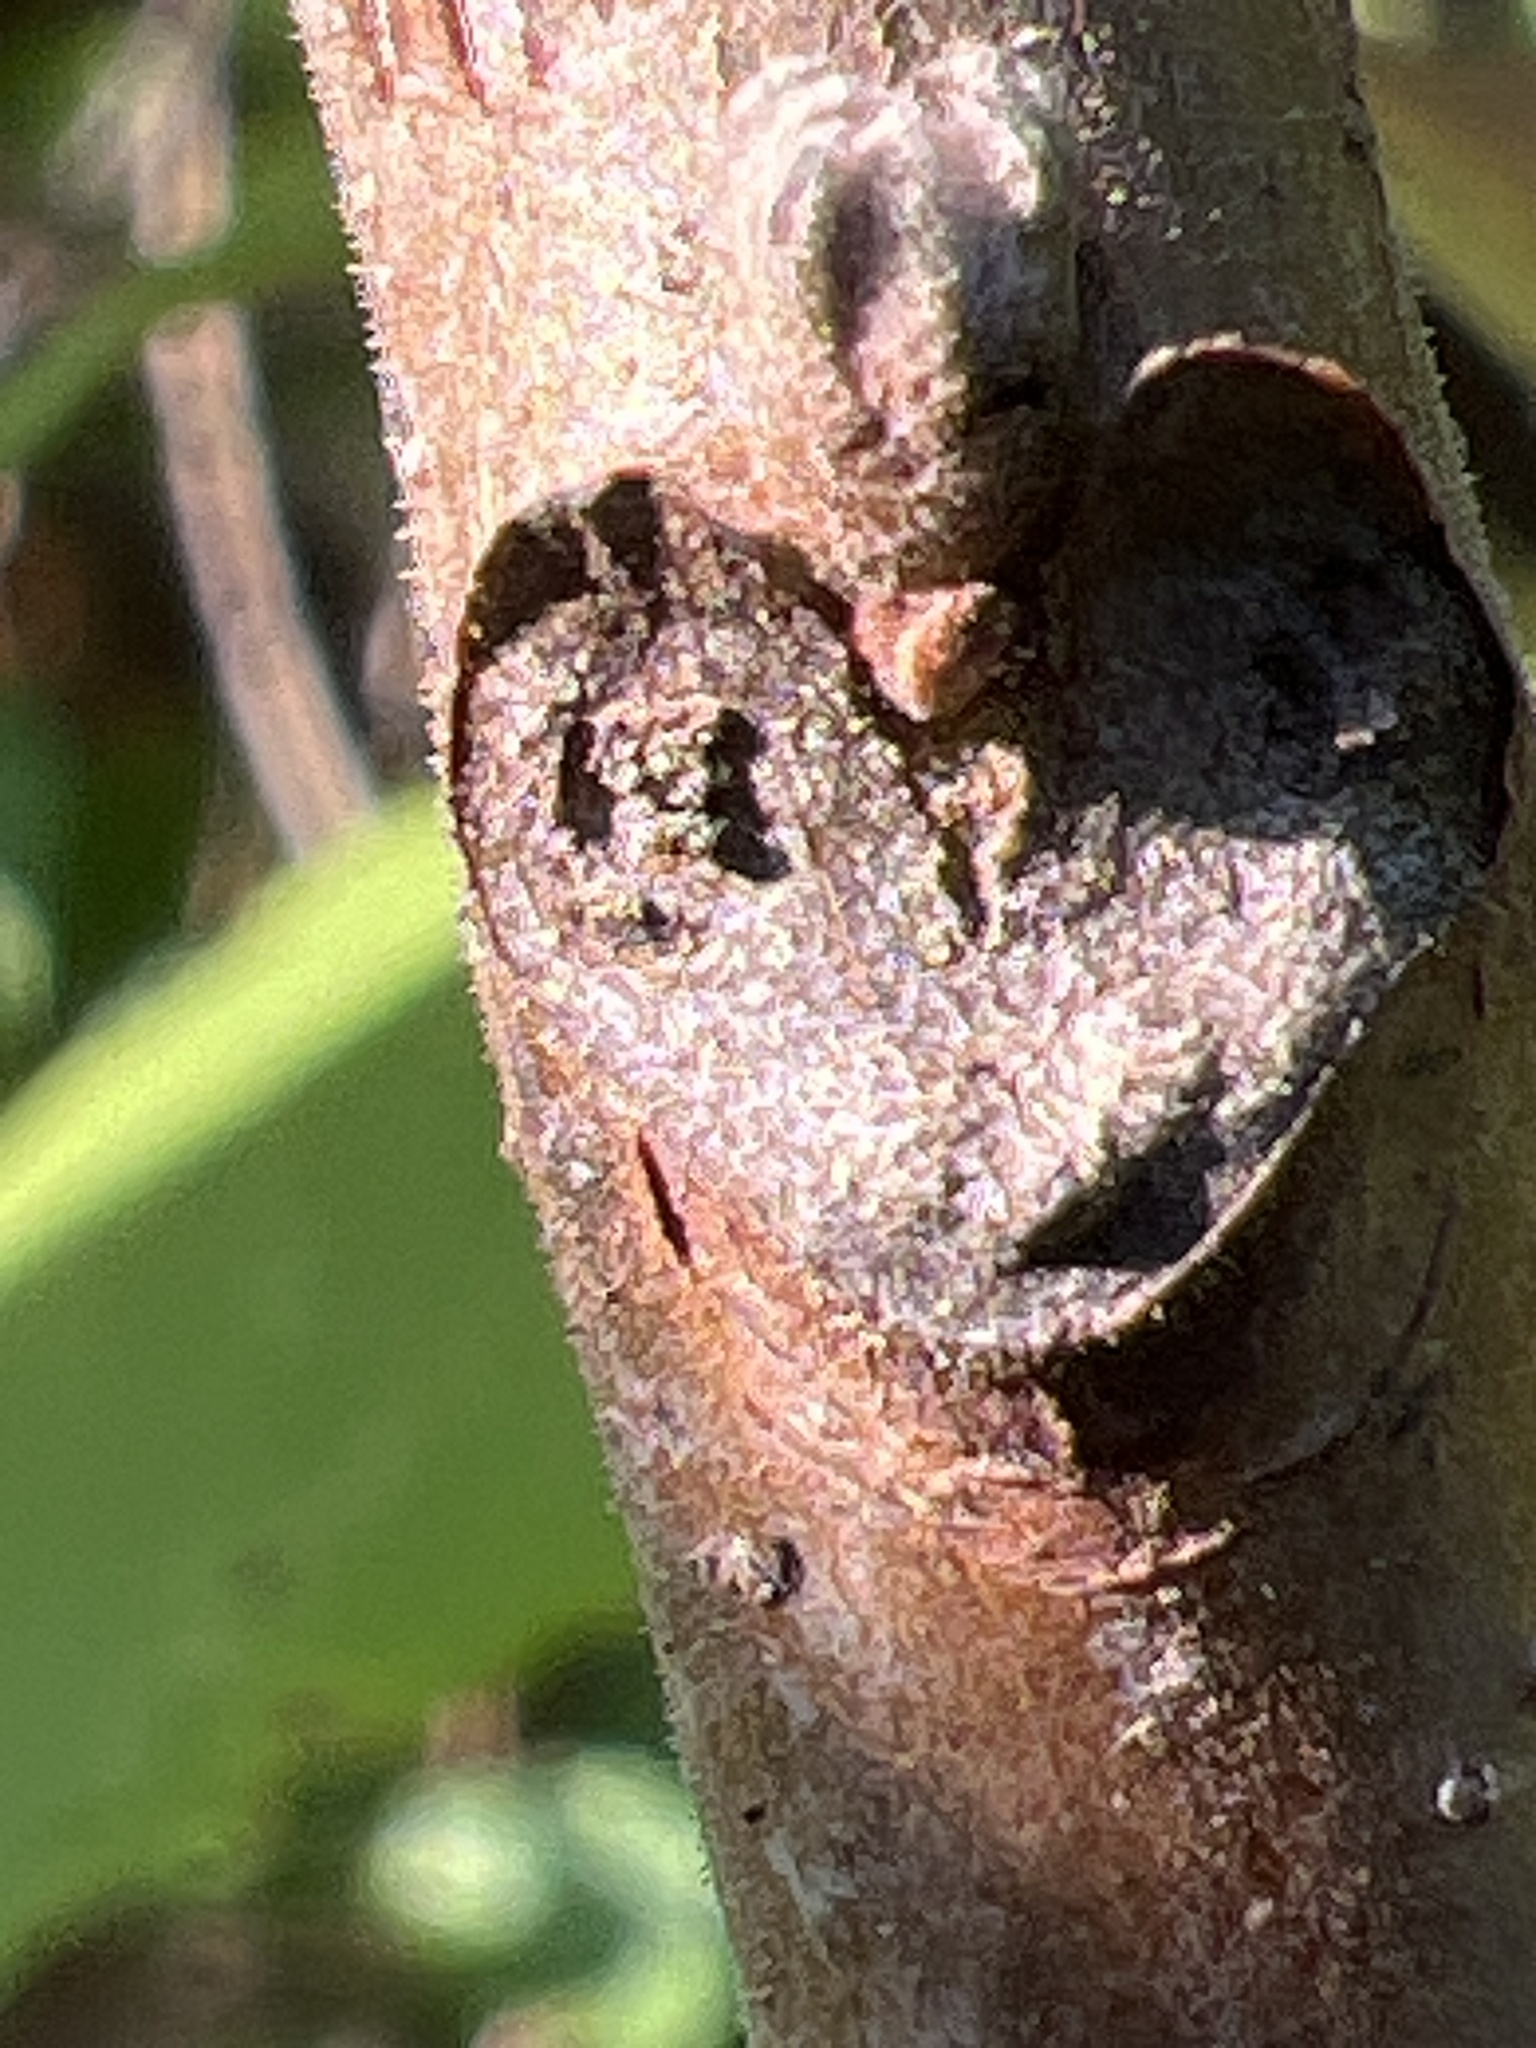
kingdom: Plantae
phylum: Tracheophyta
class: Magnoliopsida
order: Fagales
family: Juglandaceae
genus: Juglans
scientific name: Juglans nigra
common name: Black walnut
